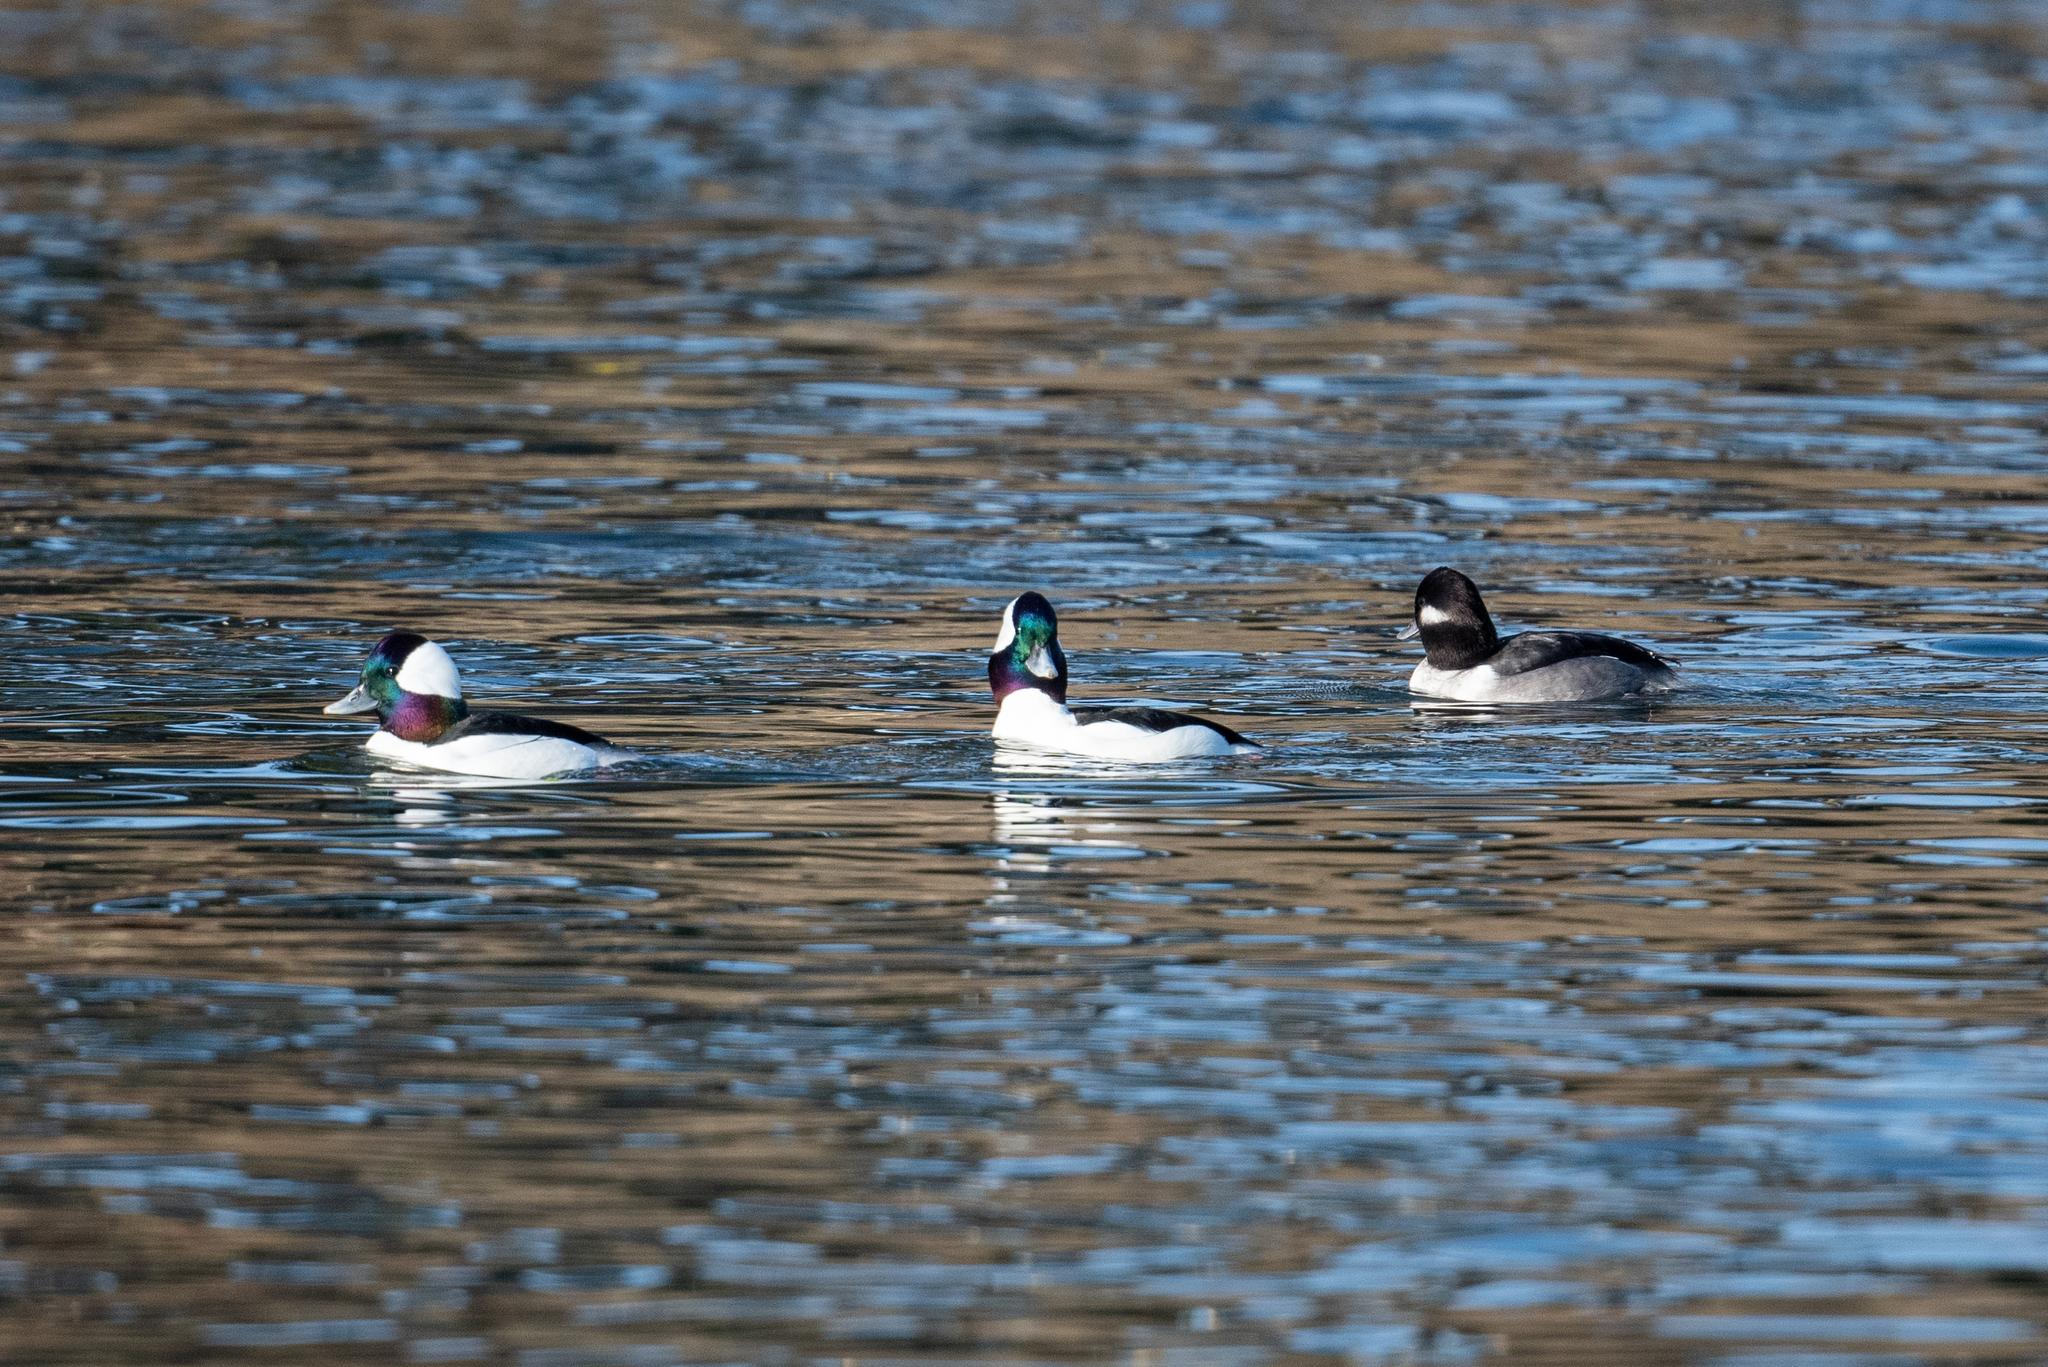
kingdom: Animalia
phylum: Chordata
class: Aves
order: Anseriformes
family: Anatidae
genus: Bucephala
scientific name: Bucephala albeola
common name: Bufflehead
